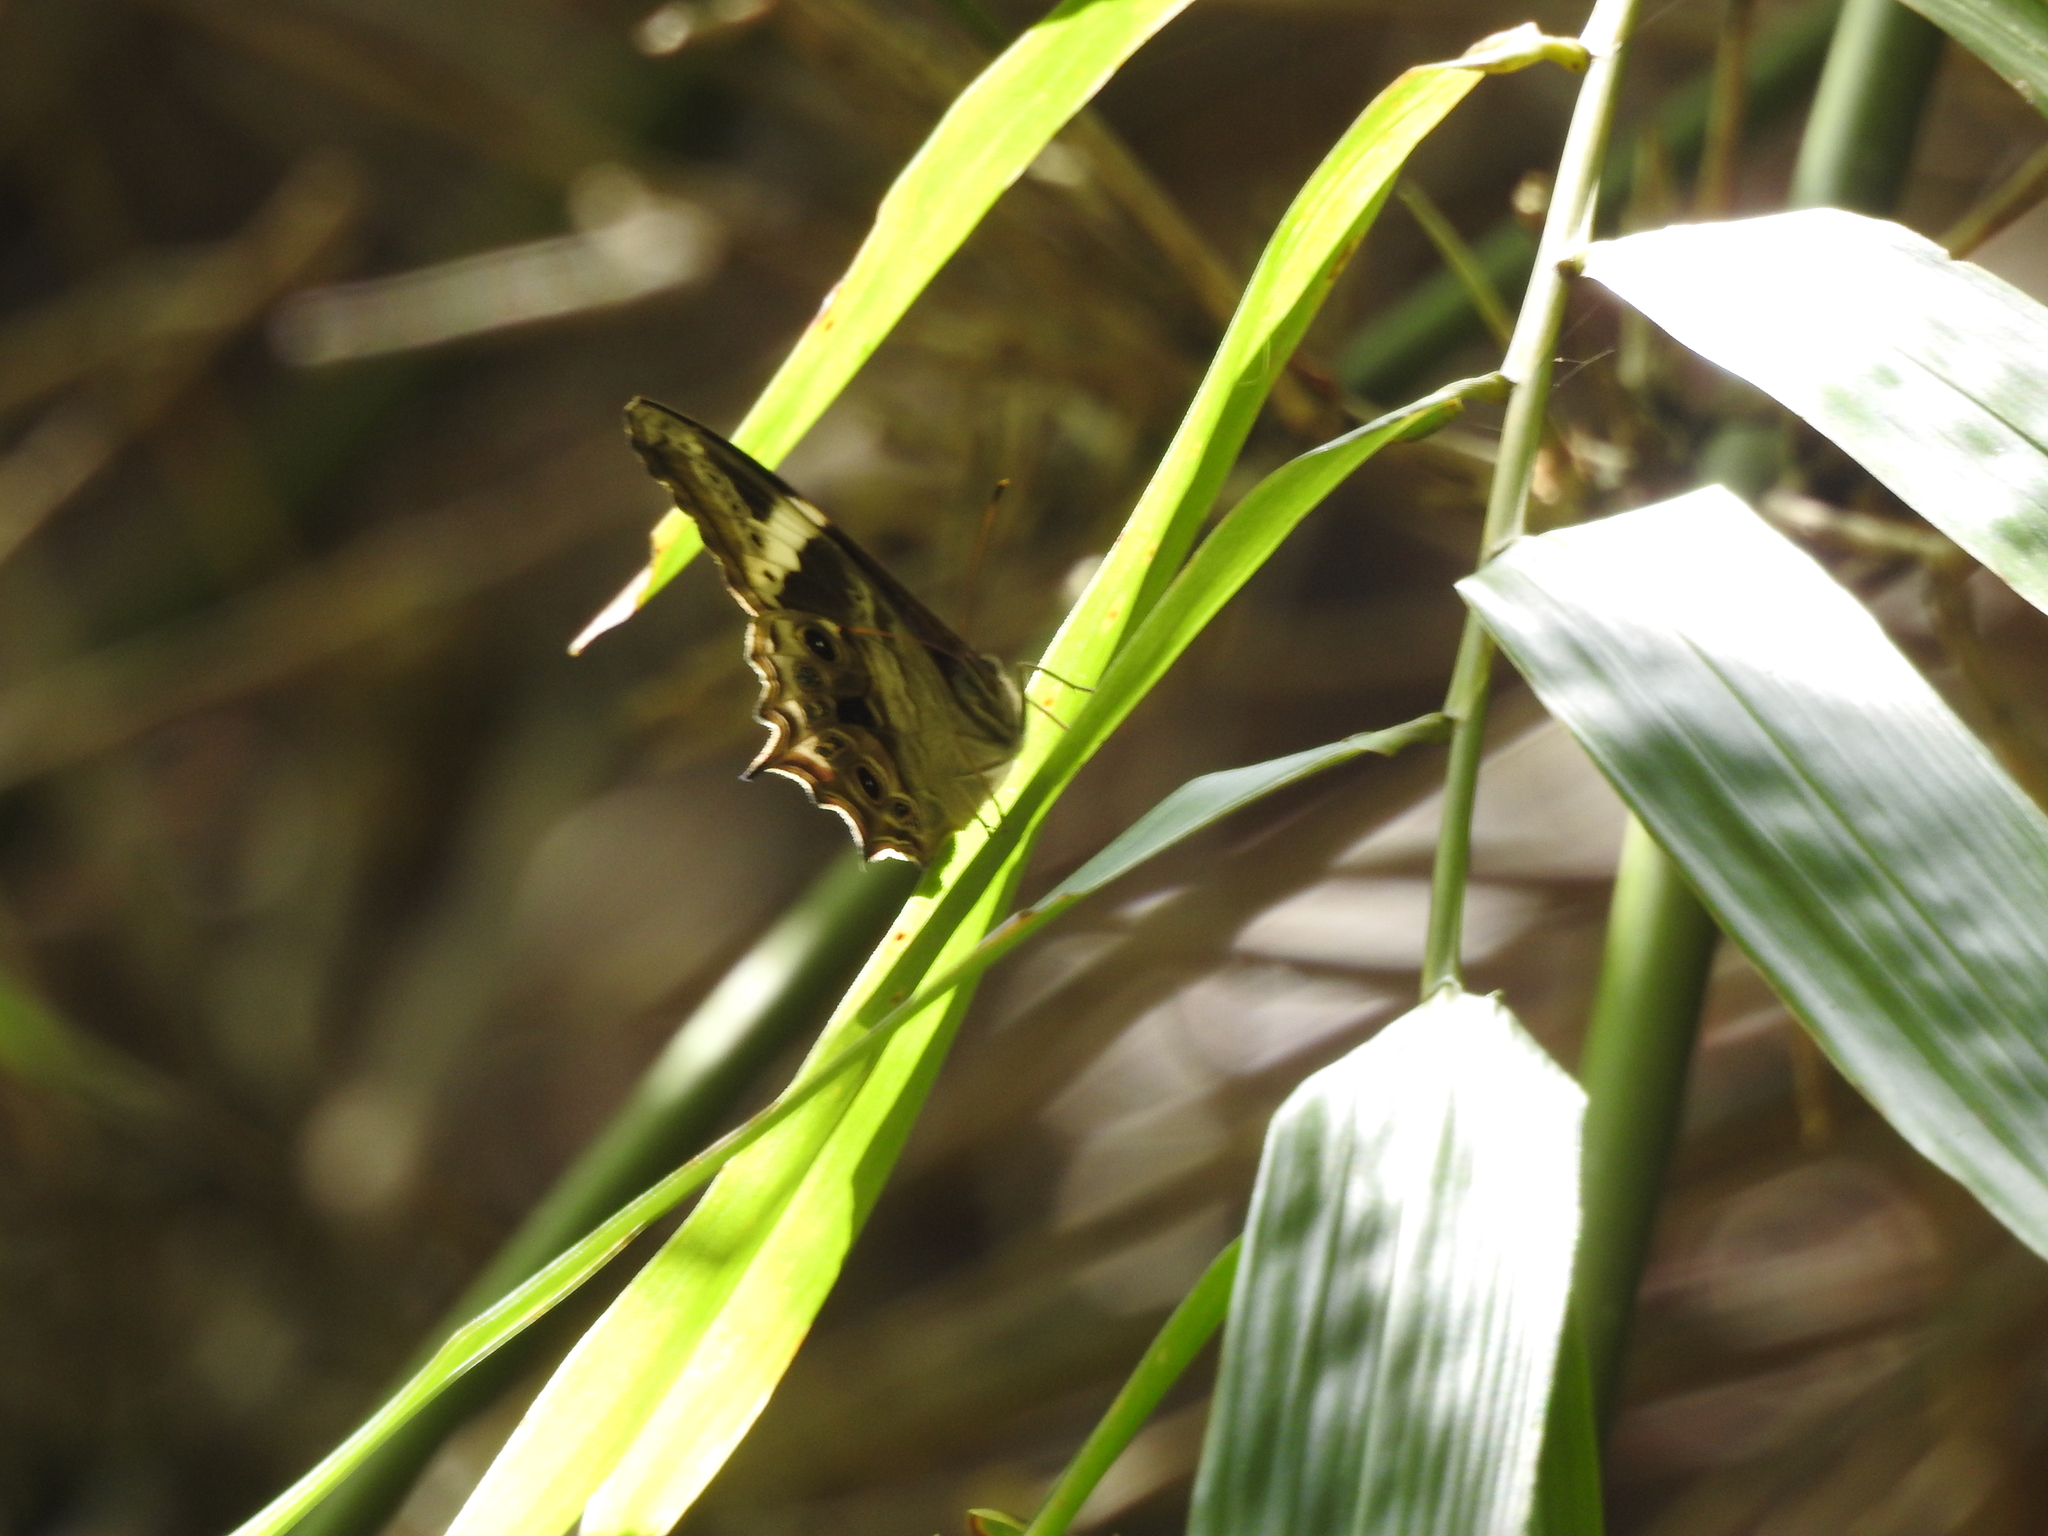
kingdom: Animalia
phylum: Arthropoda
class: Insecta
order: Lepidoptera
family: Nymphalidae
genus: Lethe
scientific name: Lethe drypetis
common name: Tamil treebrown
